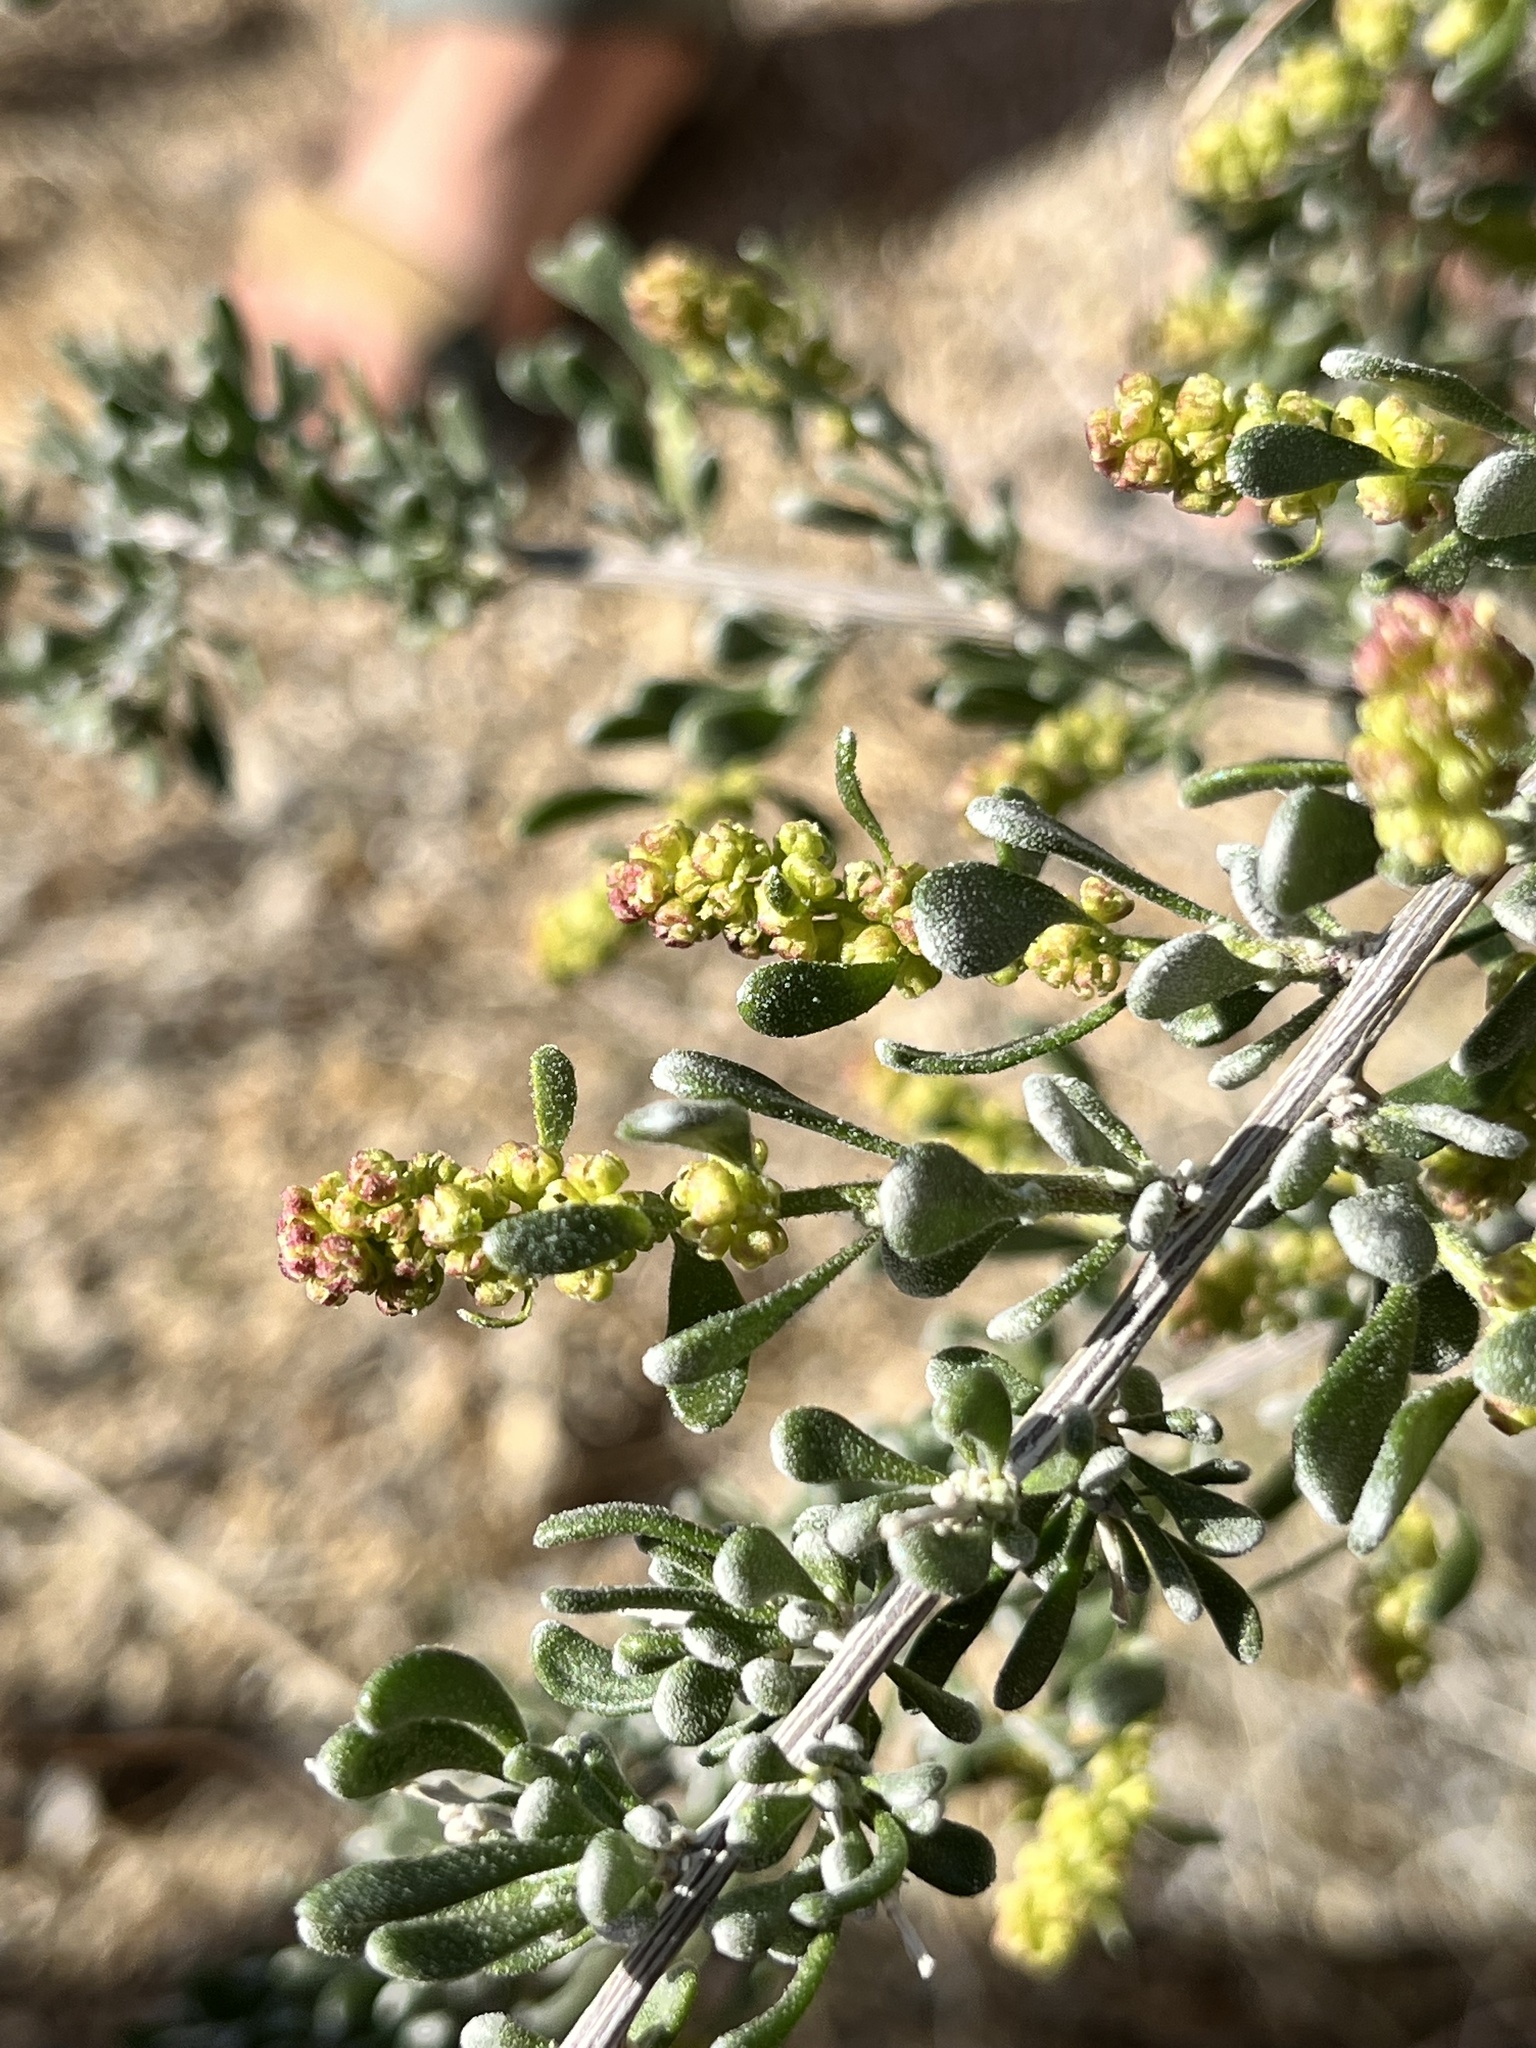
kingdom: Plantae
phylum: Tracheophyta
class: Magnoliopsida
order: Caryophyllales
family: Amaranthaceae
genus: Grayia
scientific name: Grayia spinosa
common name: Spiny hopsage
